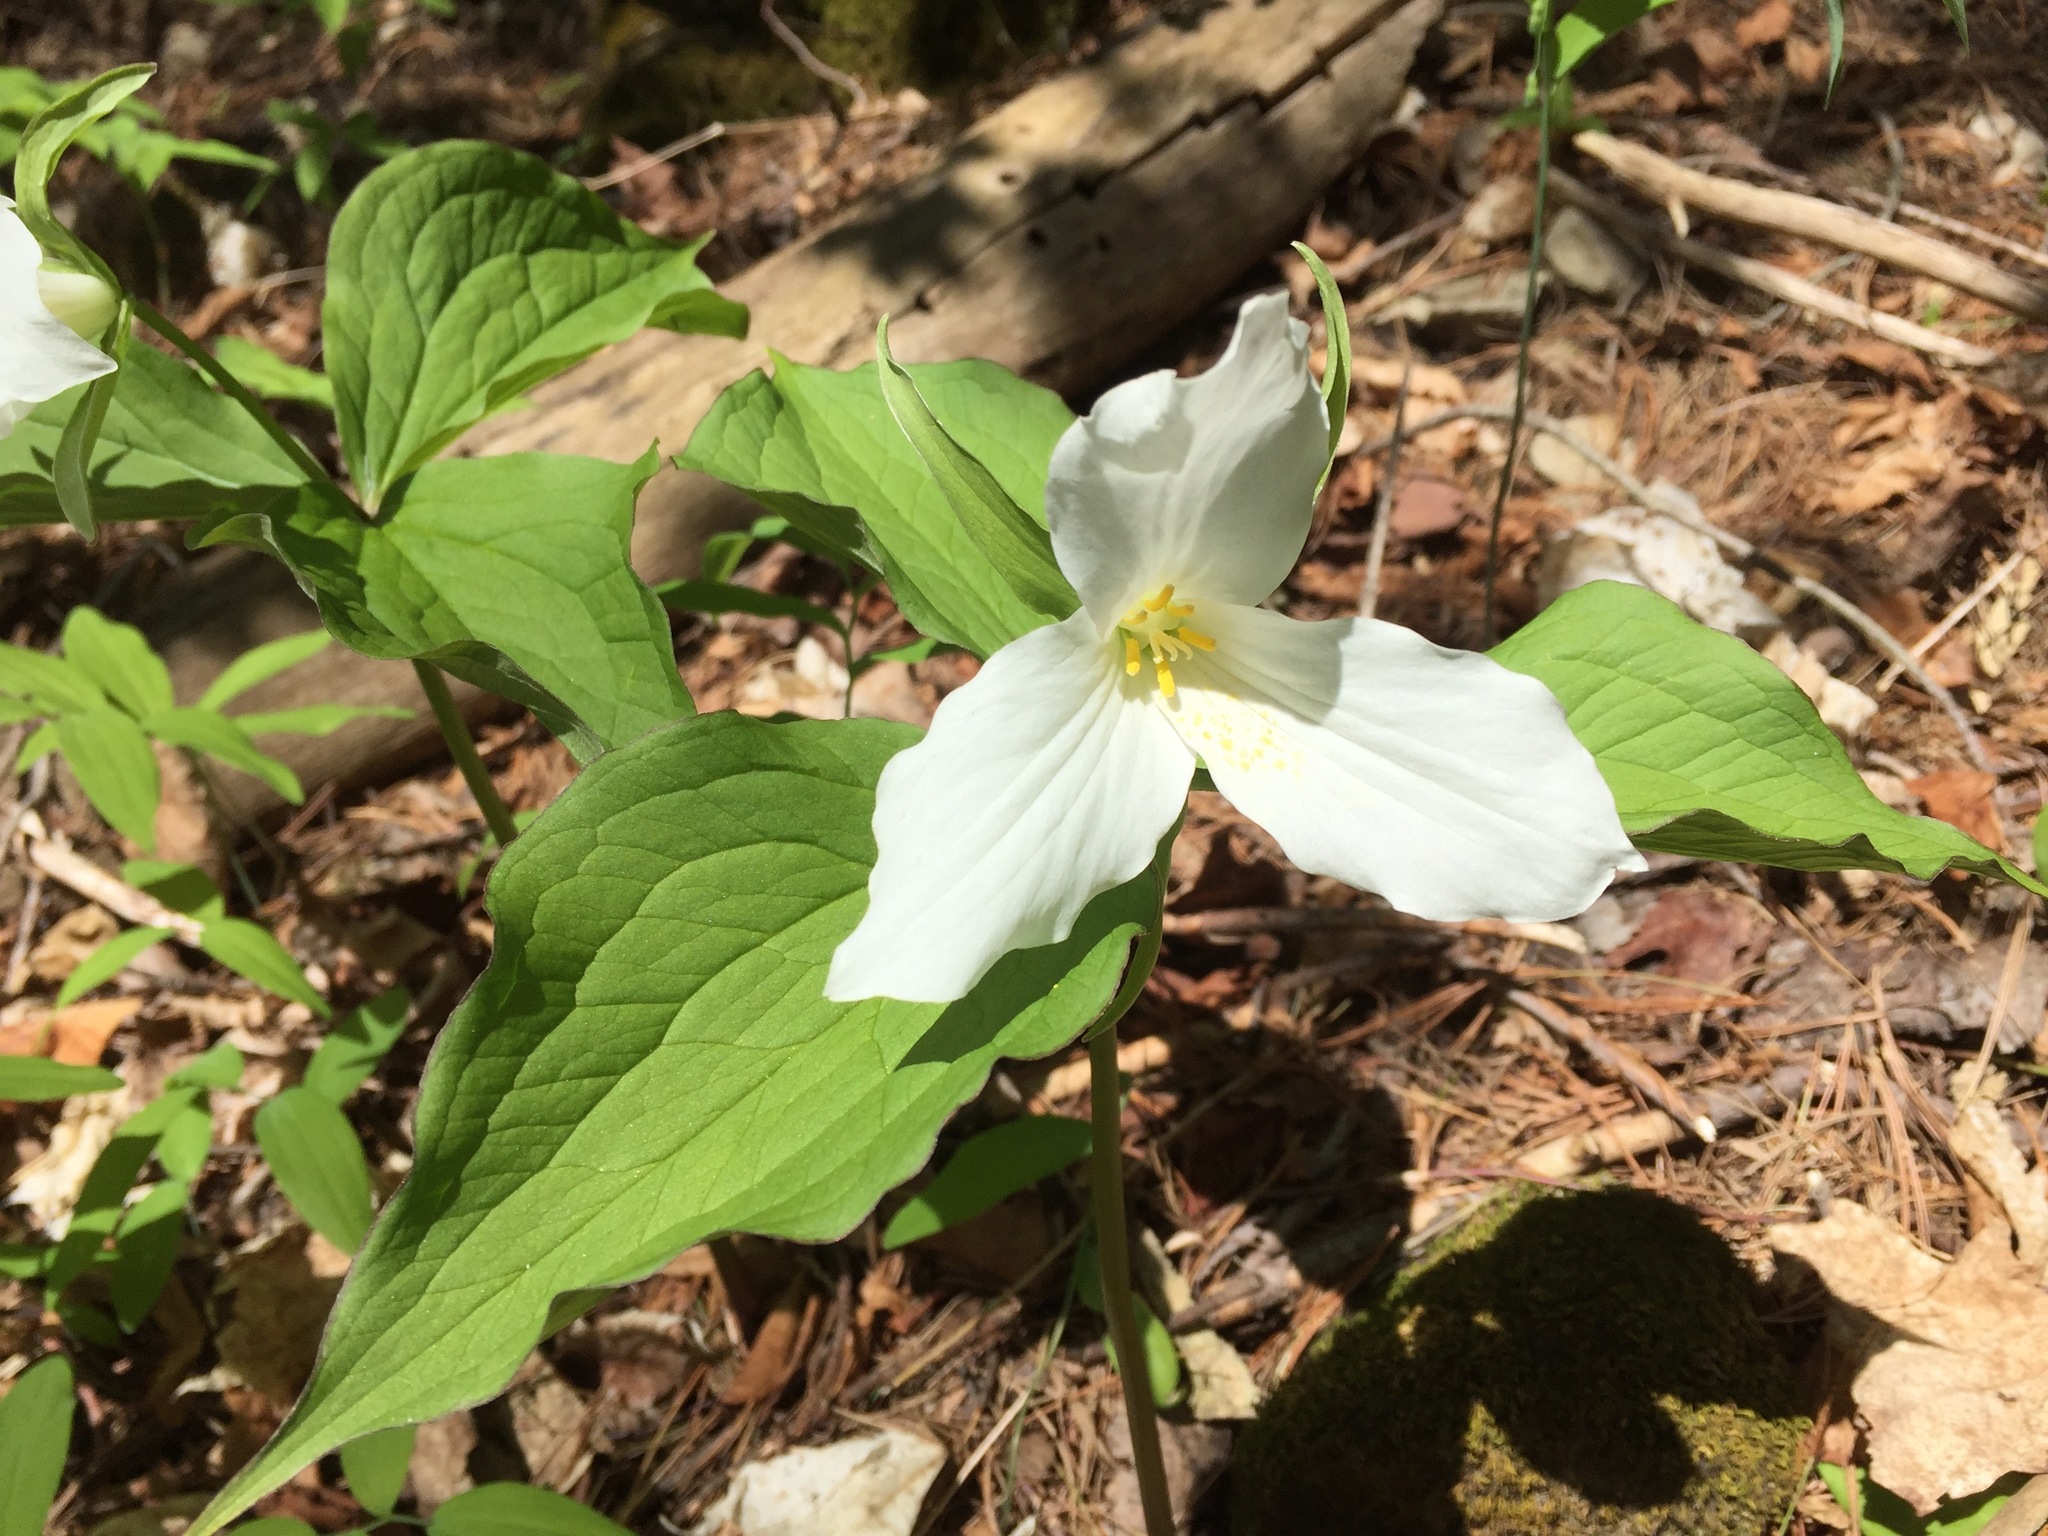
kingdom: Plantae
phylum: Tracheophyta
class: Liliopsida
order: Liliales
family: Melanthiaceae
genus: Trillium
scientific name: Trillium grandiflorum
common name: Great white trillium
